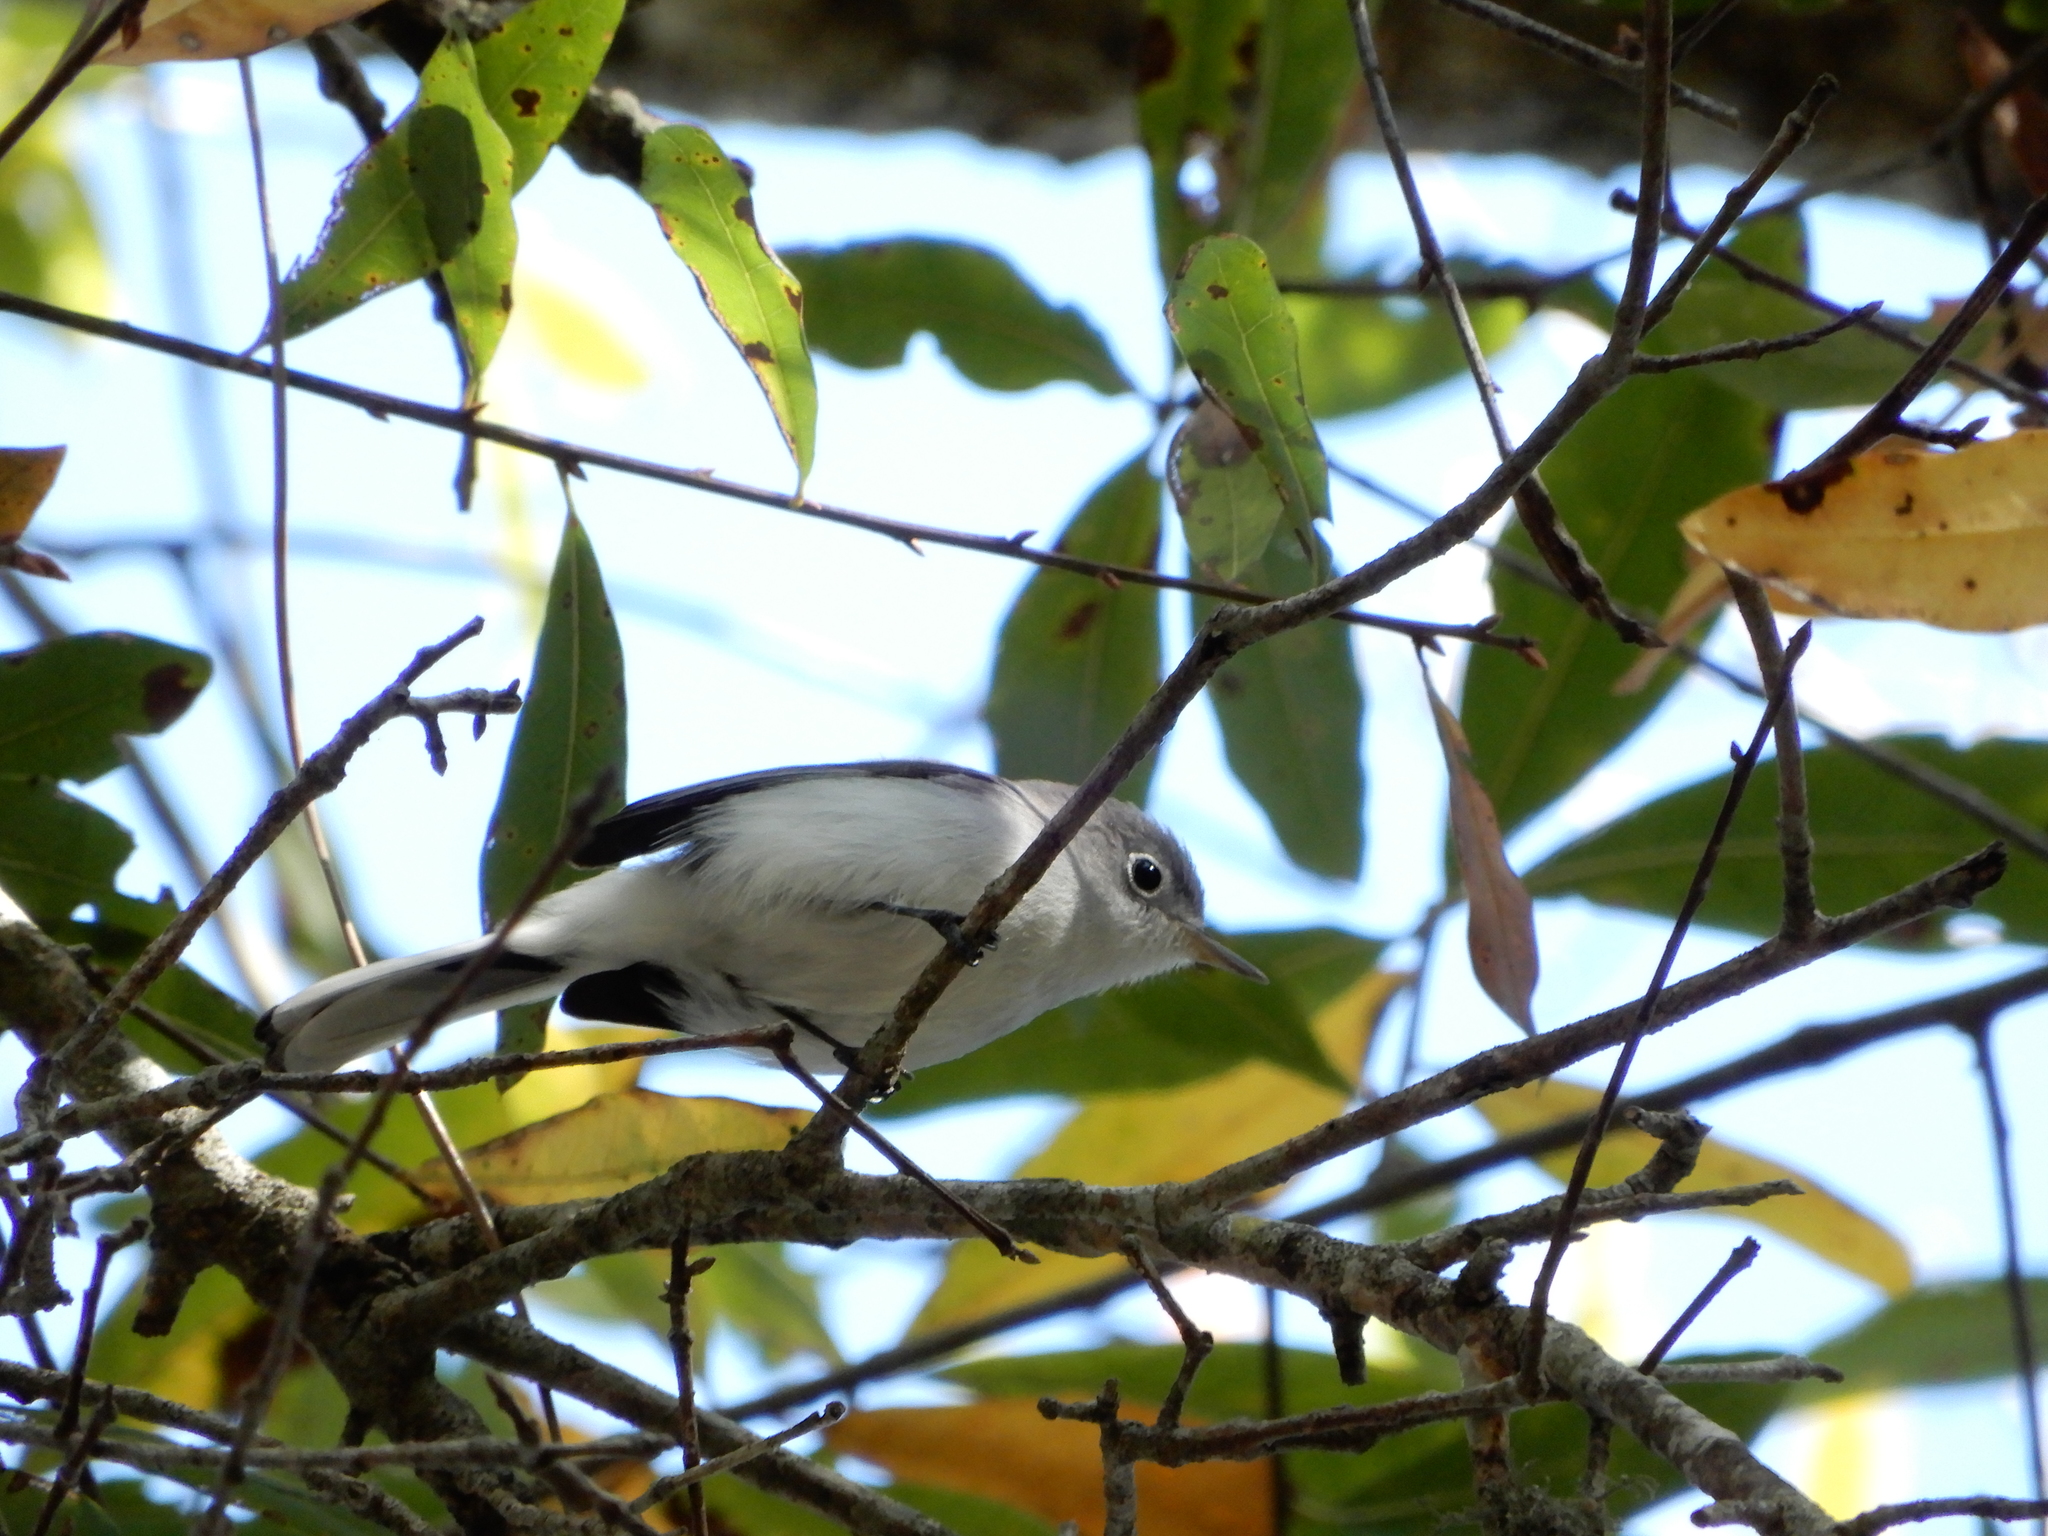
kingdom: Animalia
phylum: Chordata
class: Aves
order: Passeriformes
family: Polioptilidae
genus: Polioptila
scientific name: Polioptila caerulea
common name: Blue-gray gnatcatcher
